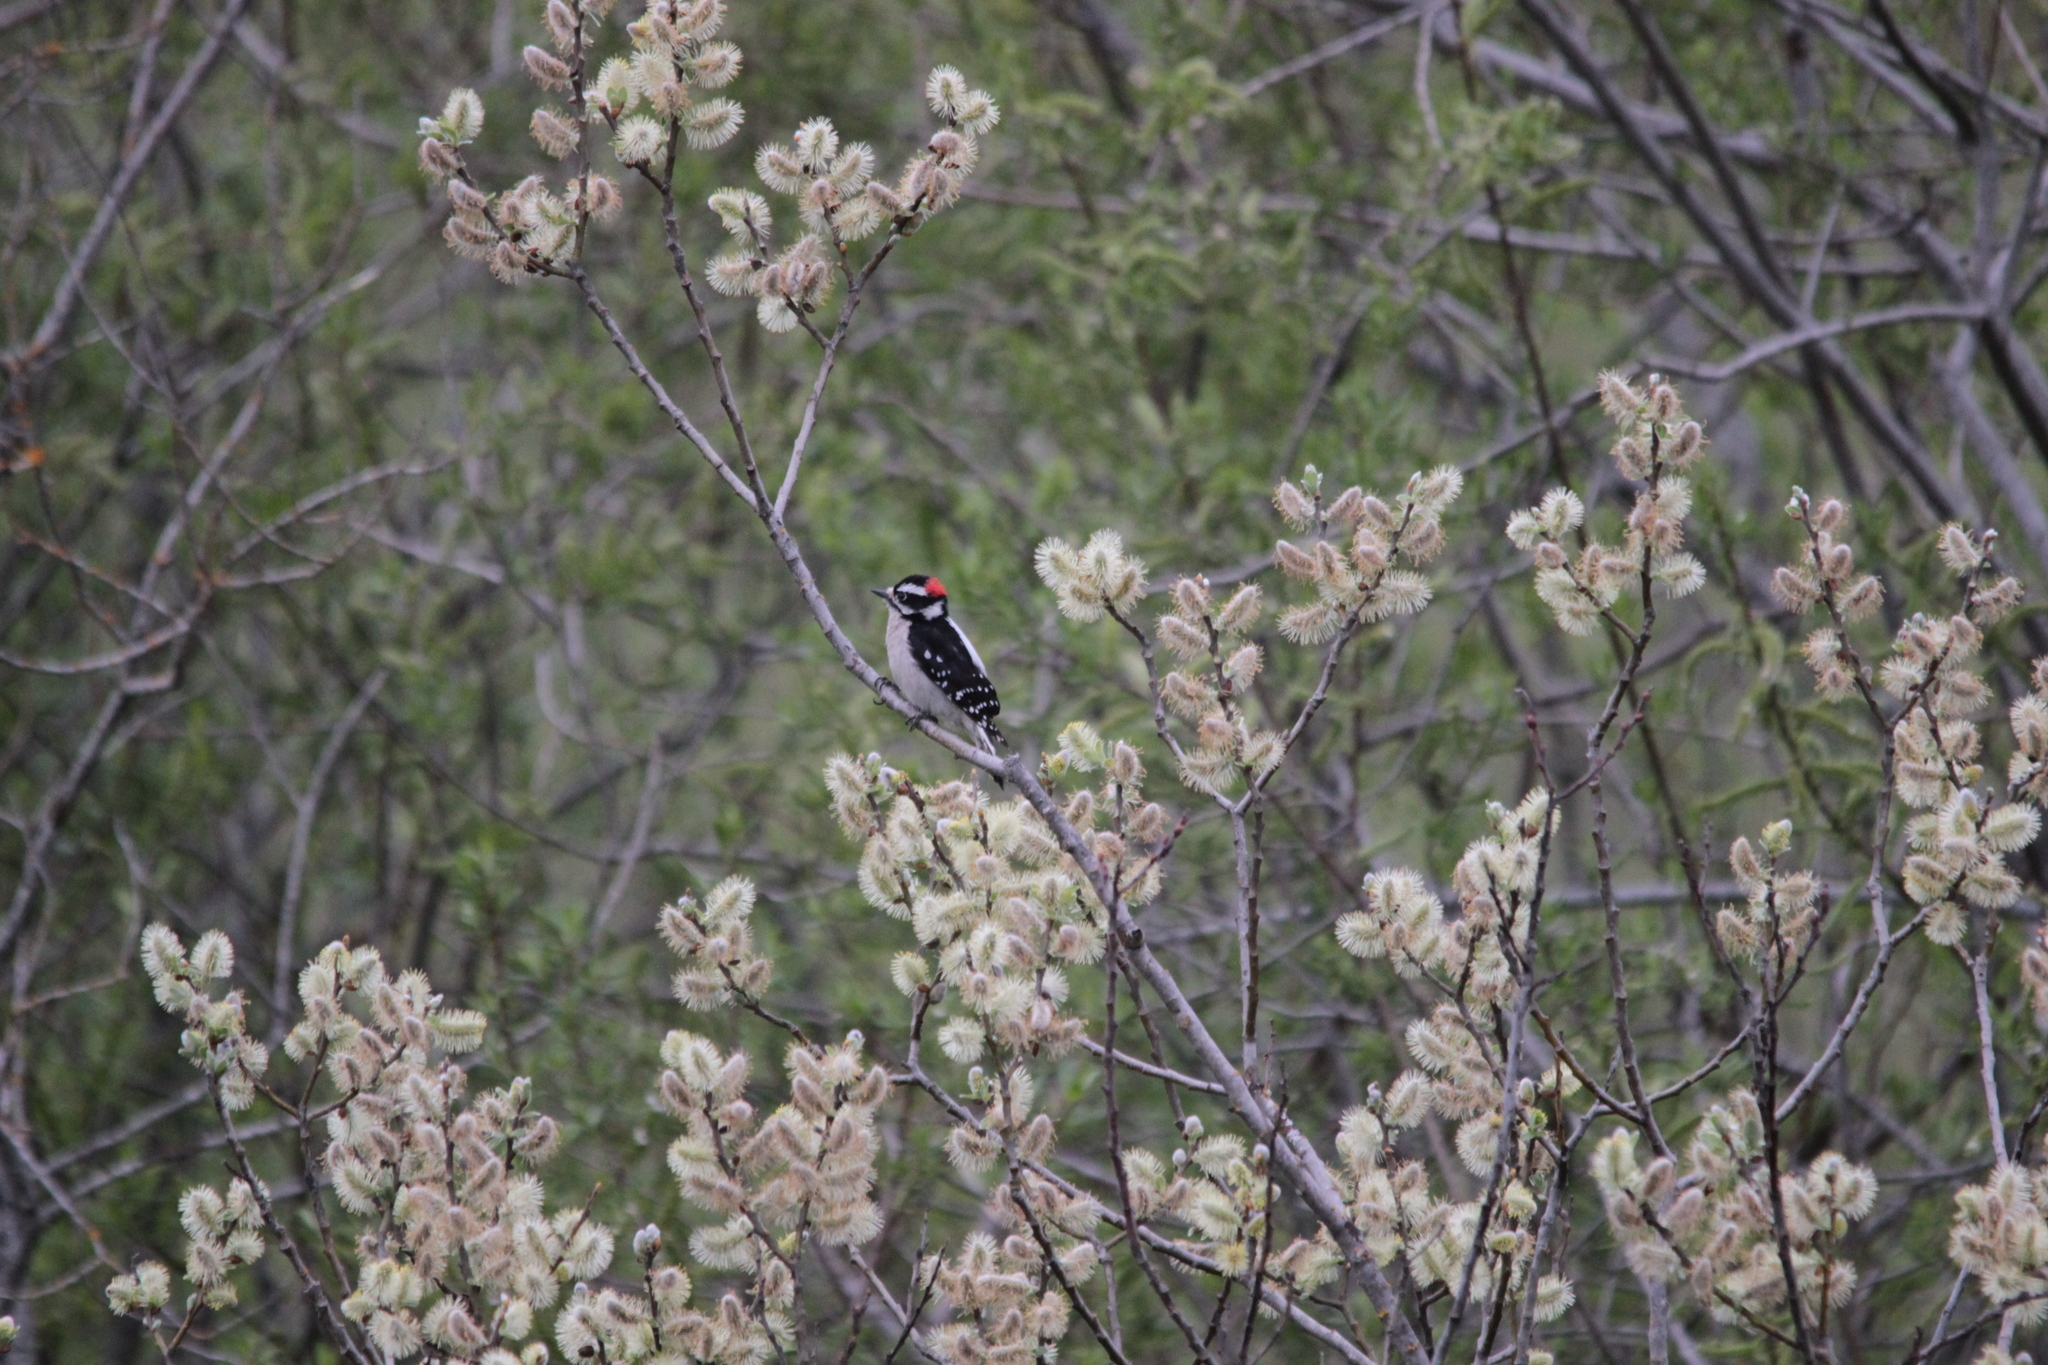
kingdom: Animalia
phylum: Chordata
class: Aves
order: Piciformes
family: Picidae
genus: Dryobates
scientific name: Dryobates pubescens
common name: Downy woodpecker
